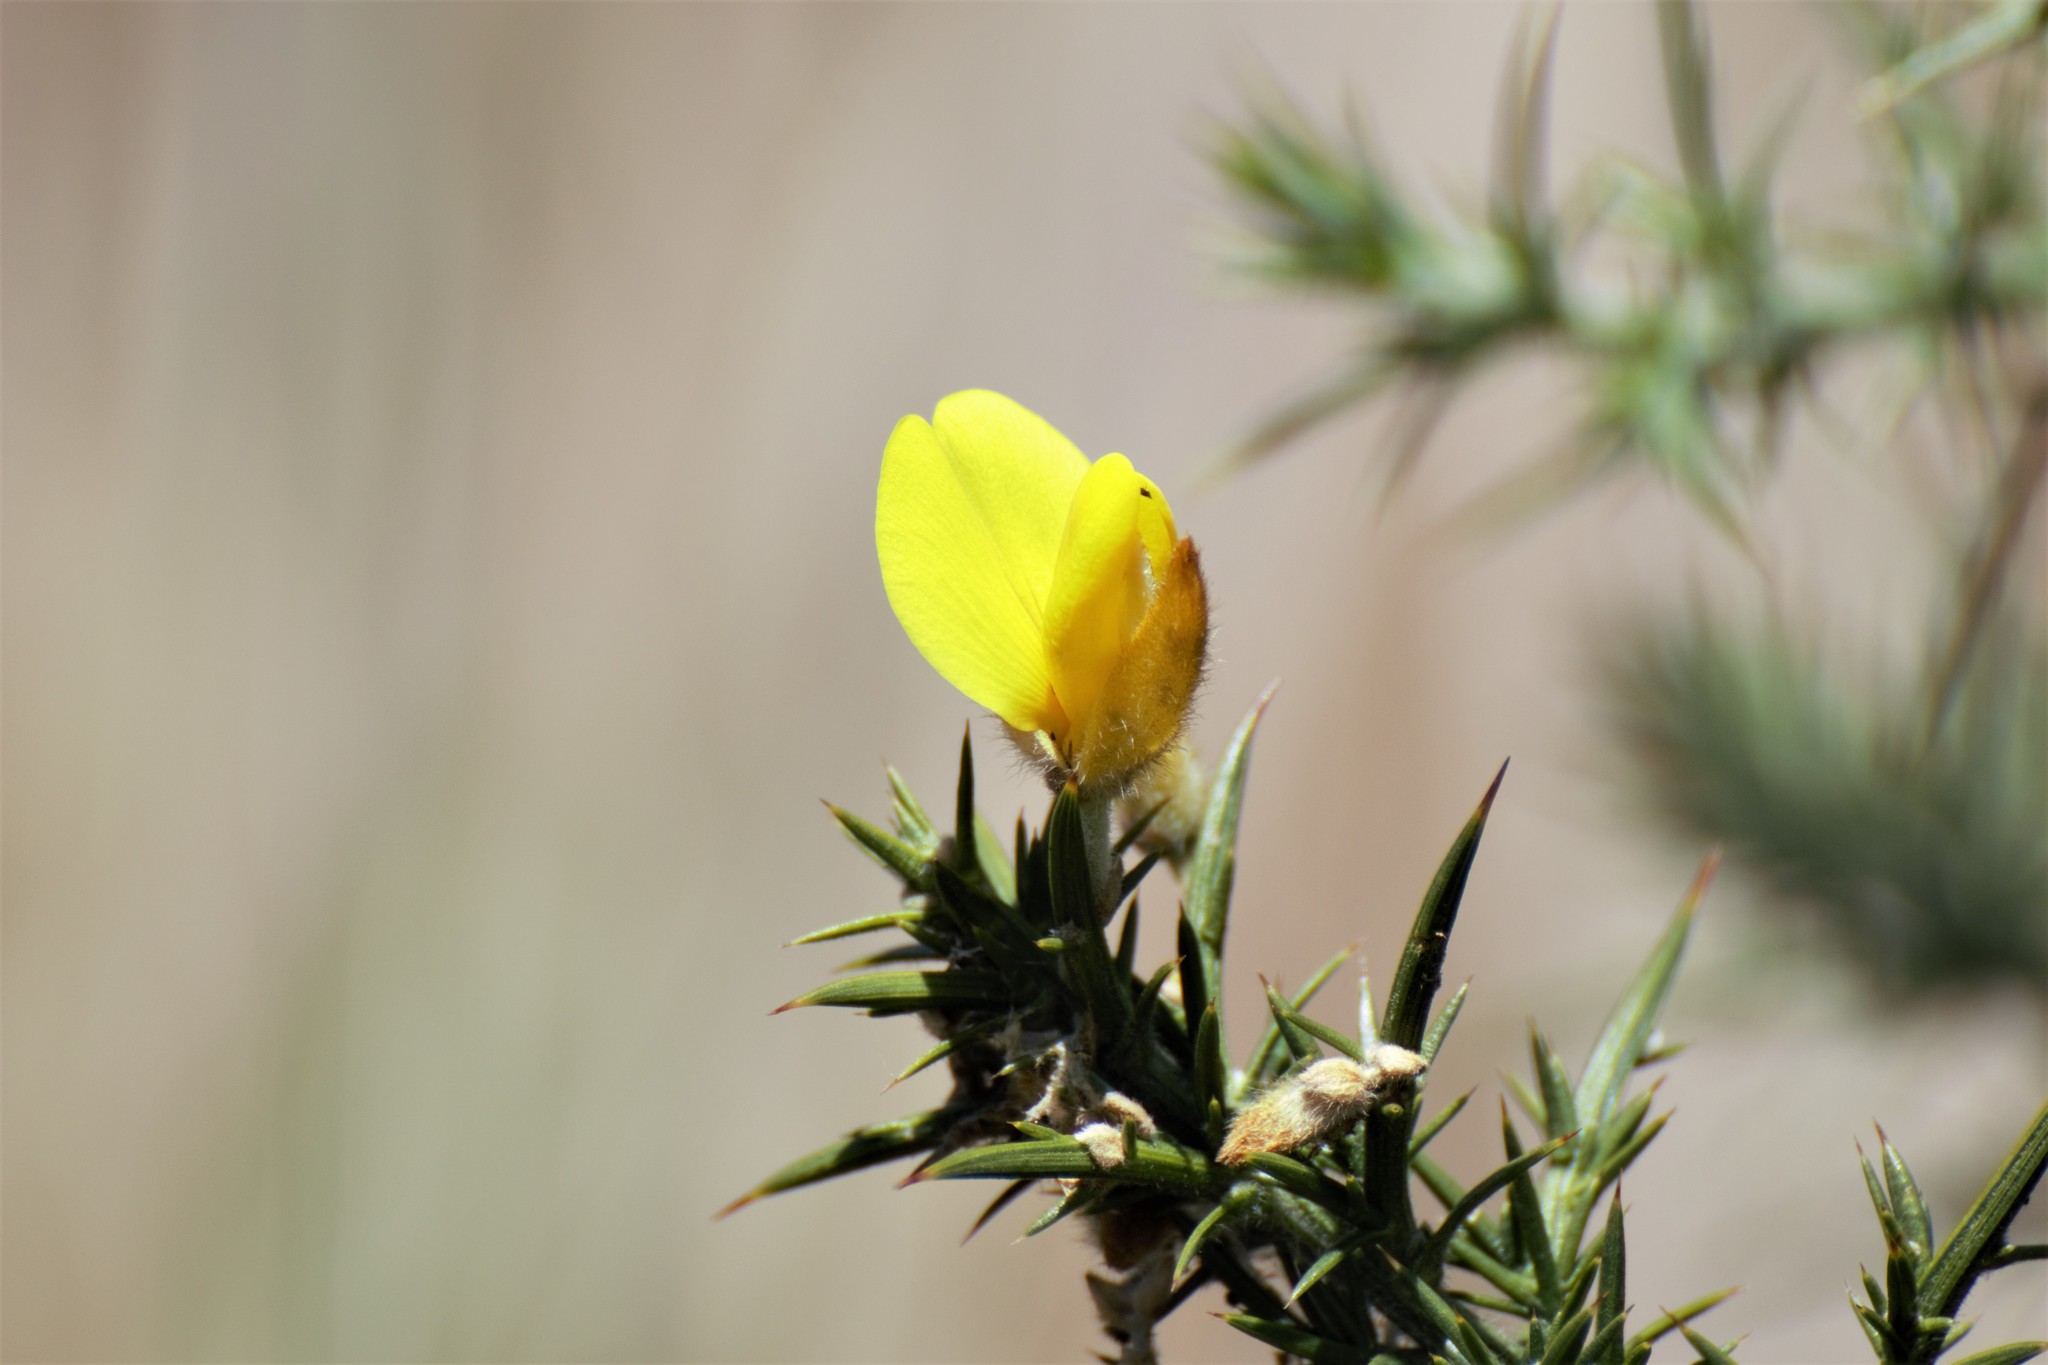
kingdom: Plantae
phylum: Tracheophyta
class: Magnoliopsida
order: Fabales
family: Fabaceae
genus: Ulex
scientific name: Ulex europaeus
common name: Common gorse
